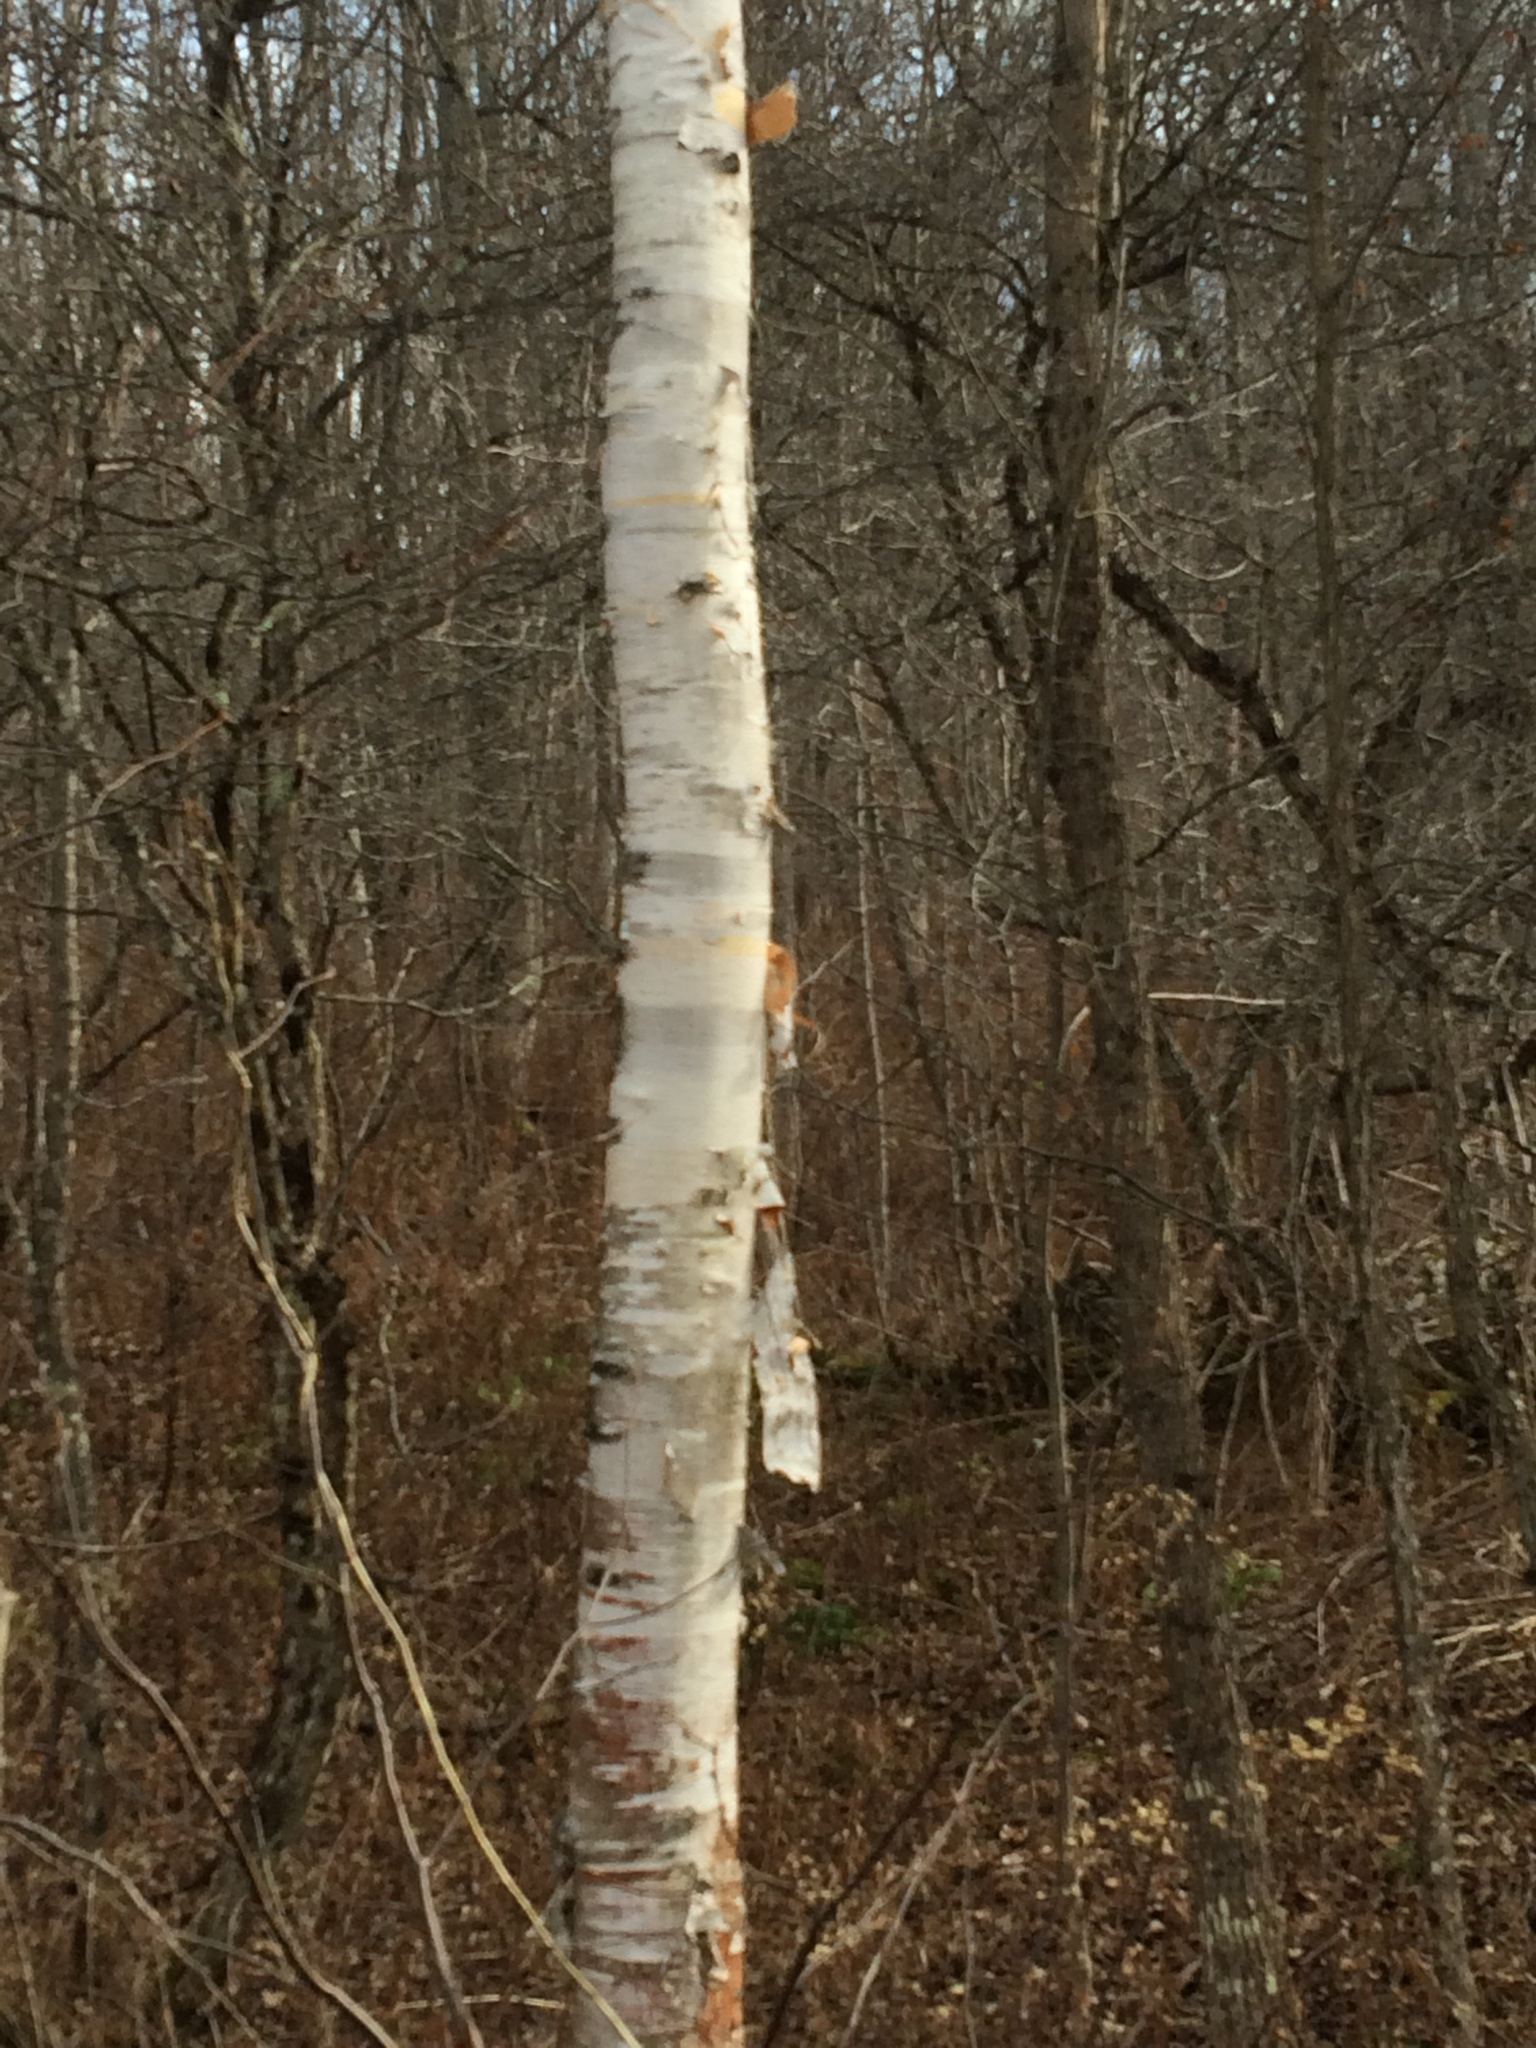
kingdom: Plantae
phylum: Tracheophyta
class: Magnoliopsida
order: Fagales
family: Betulaceae
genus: Betula
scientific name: Betula papyrifera
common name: Paper birch
